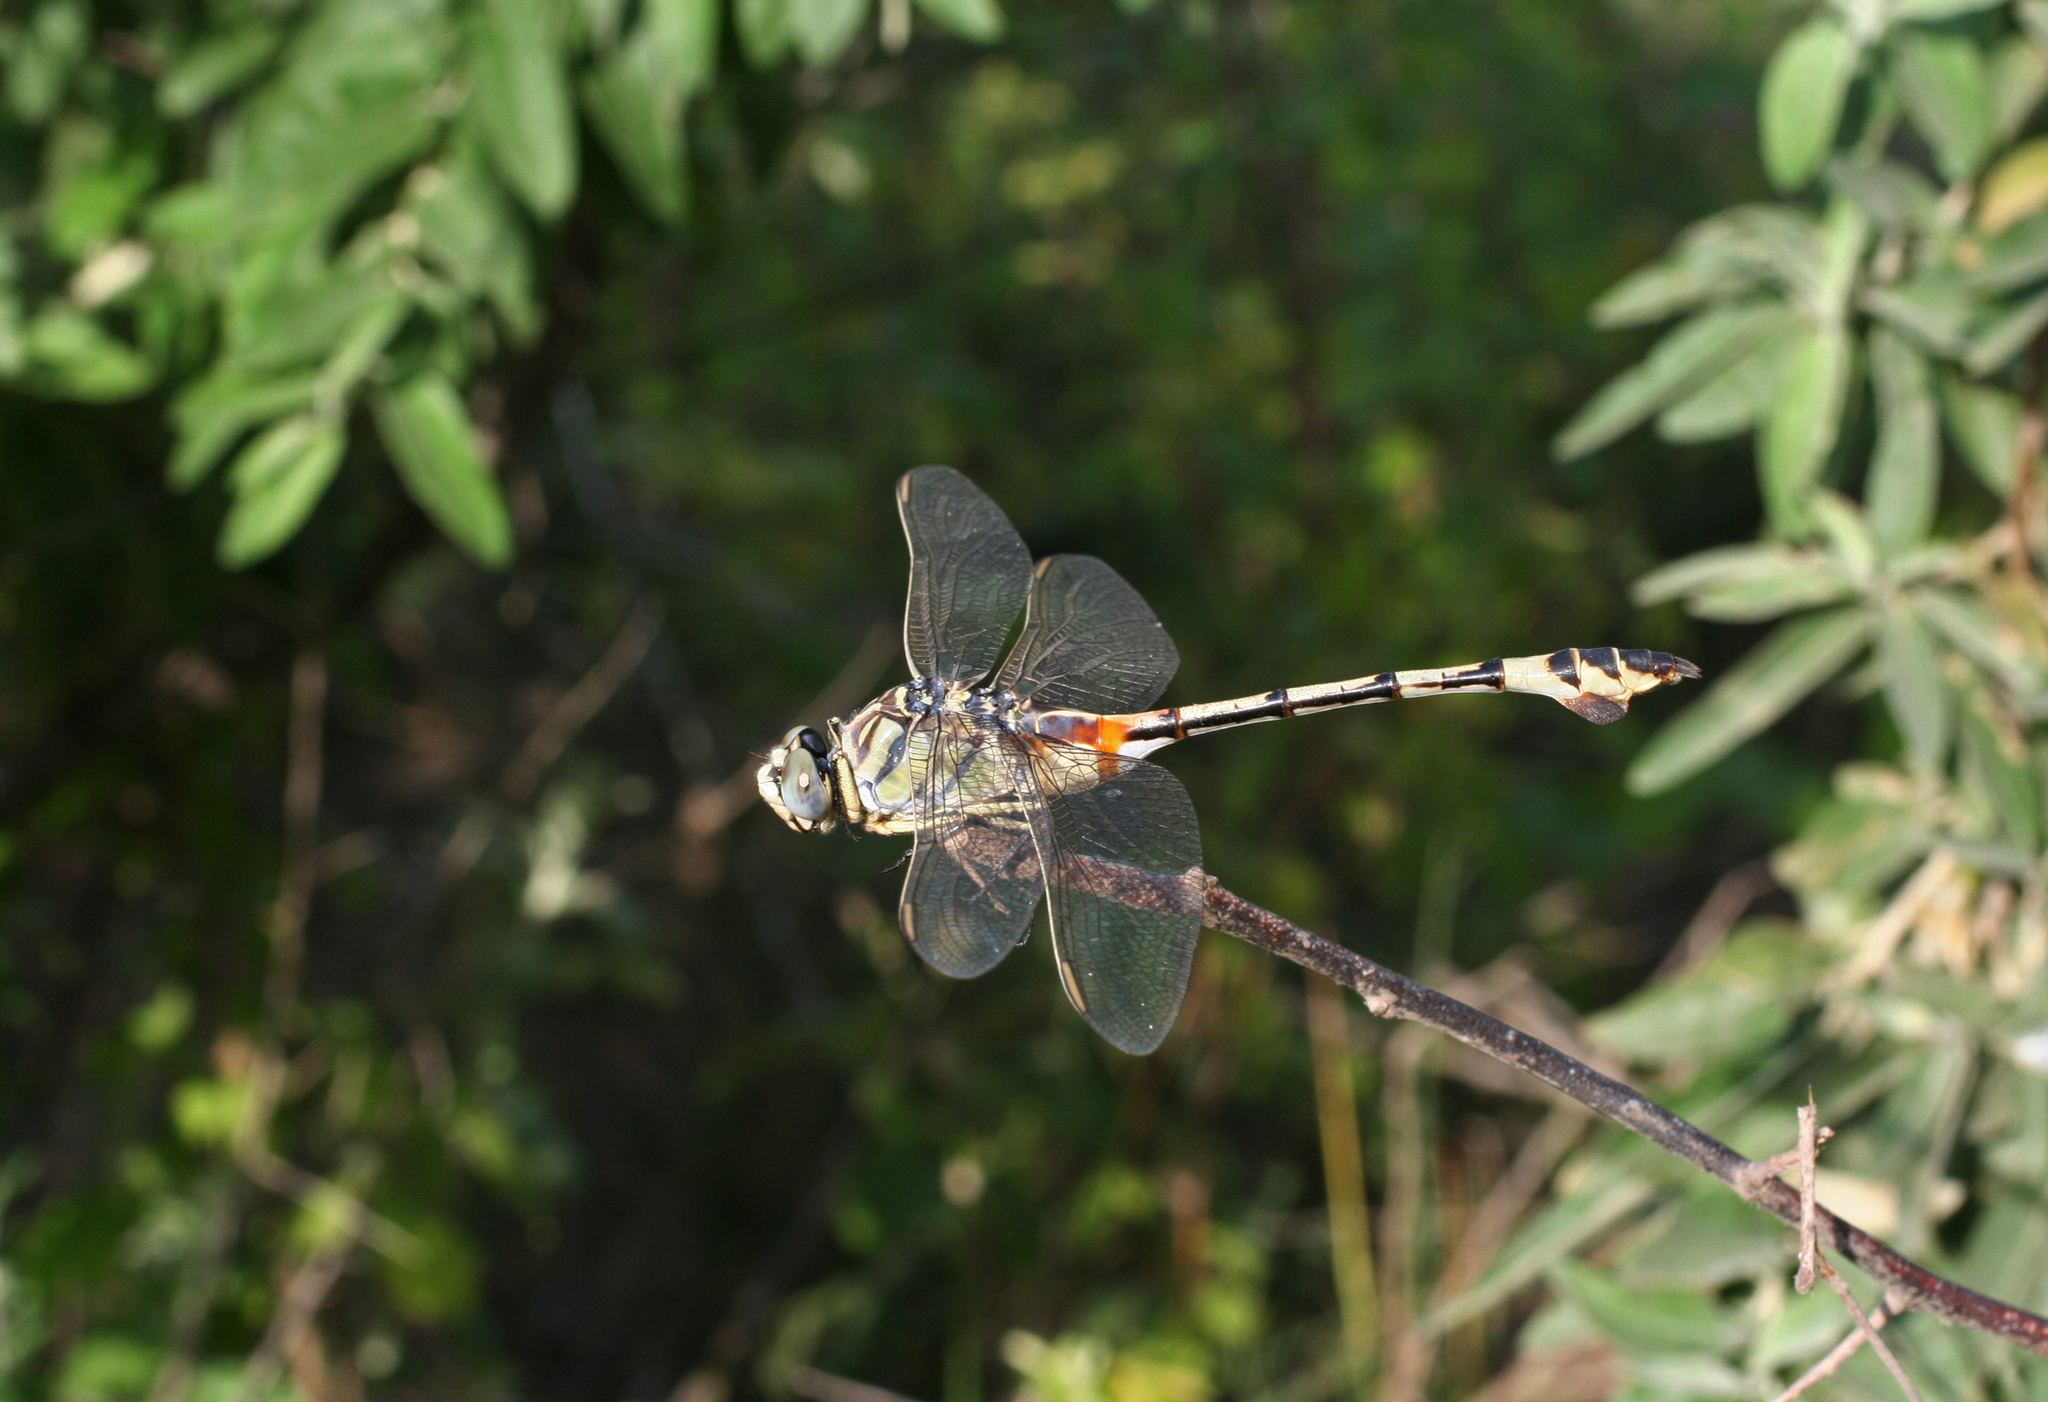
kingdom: Animalia
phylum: Arthropoda
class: Insecta
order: Odonata
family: Gomphidae
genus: Lindenia
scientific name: Lindenia tetraphylla
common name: Bladetail
